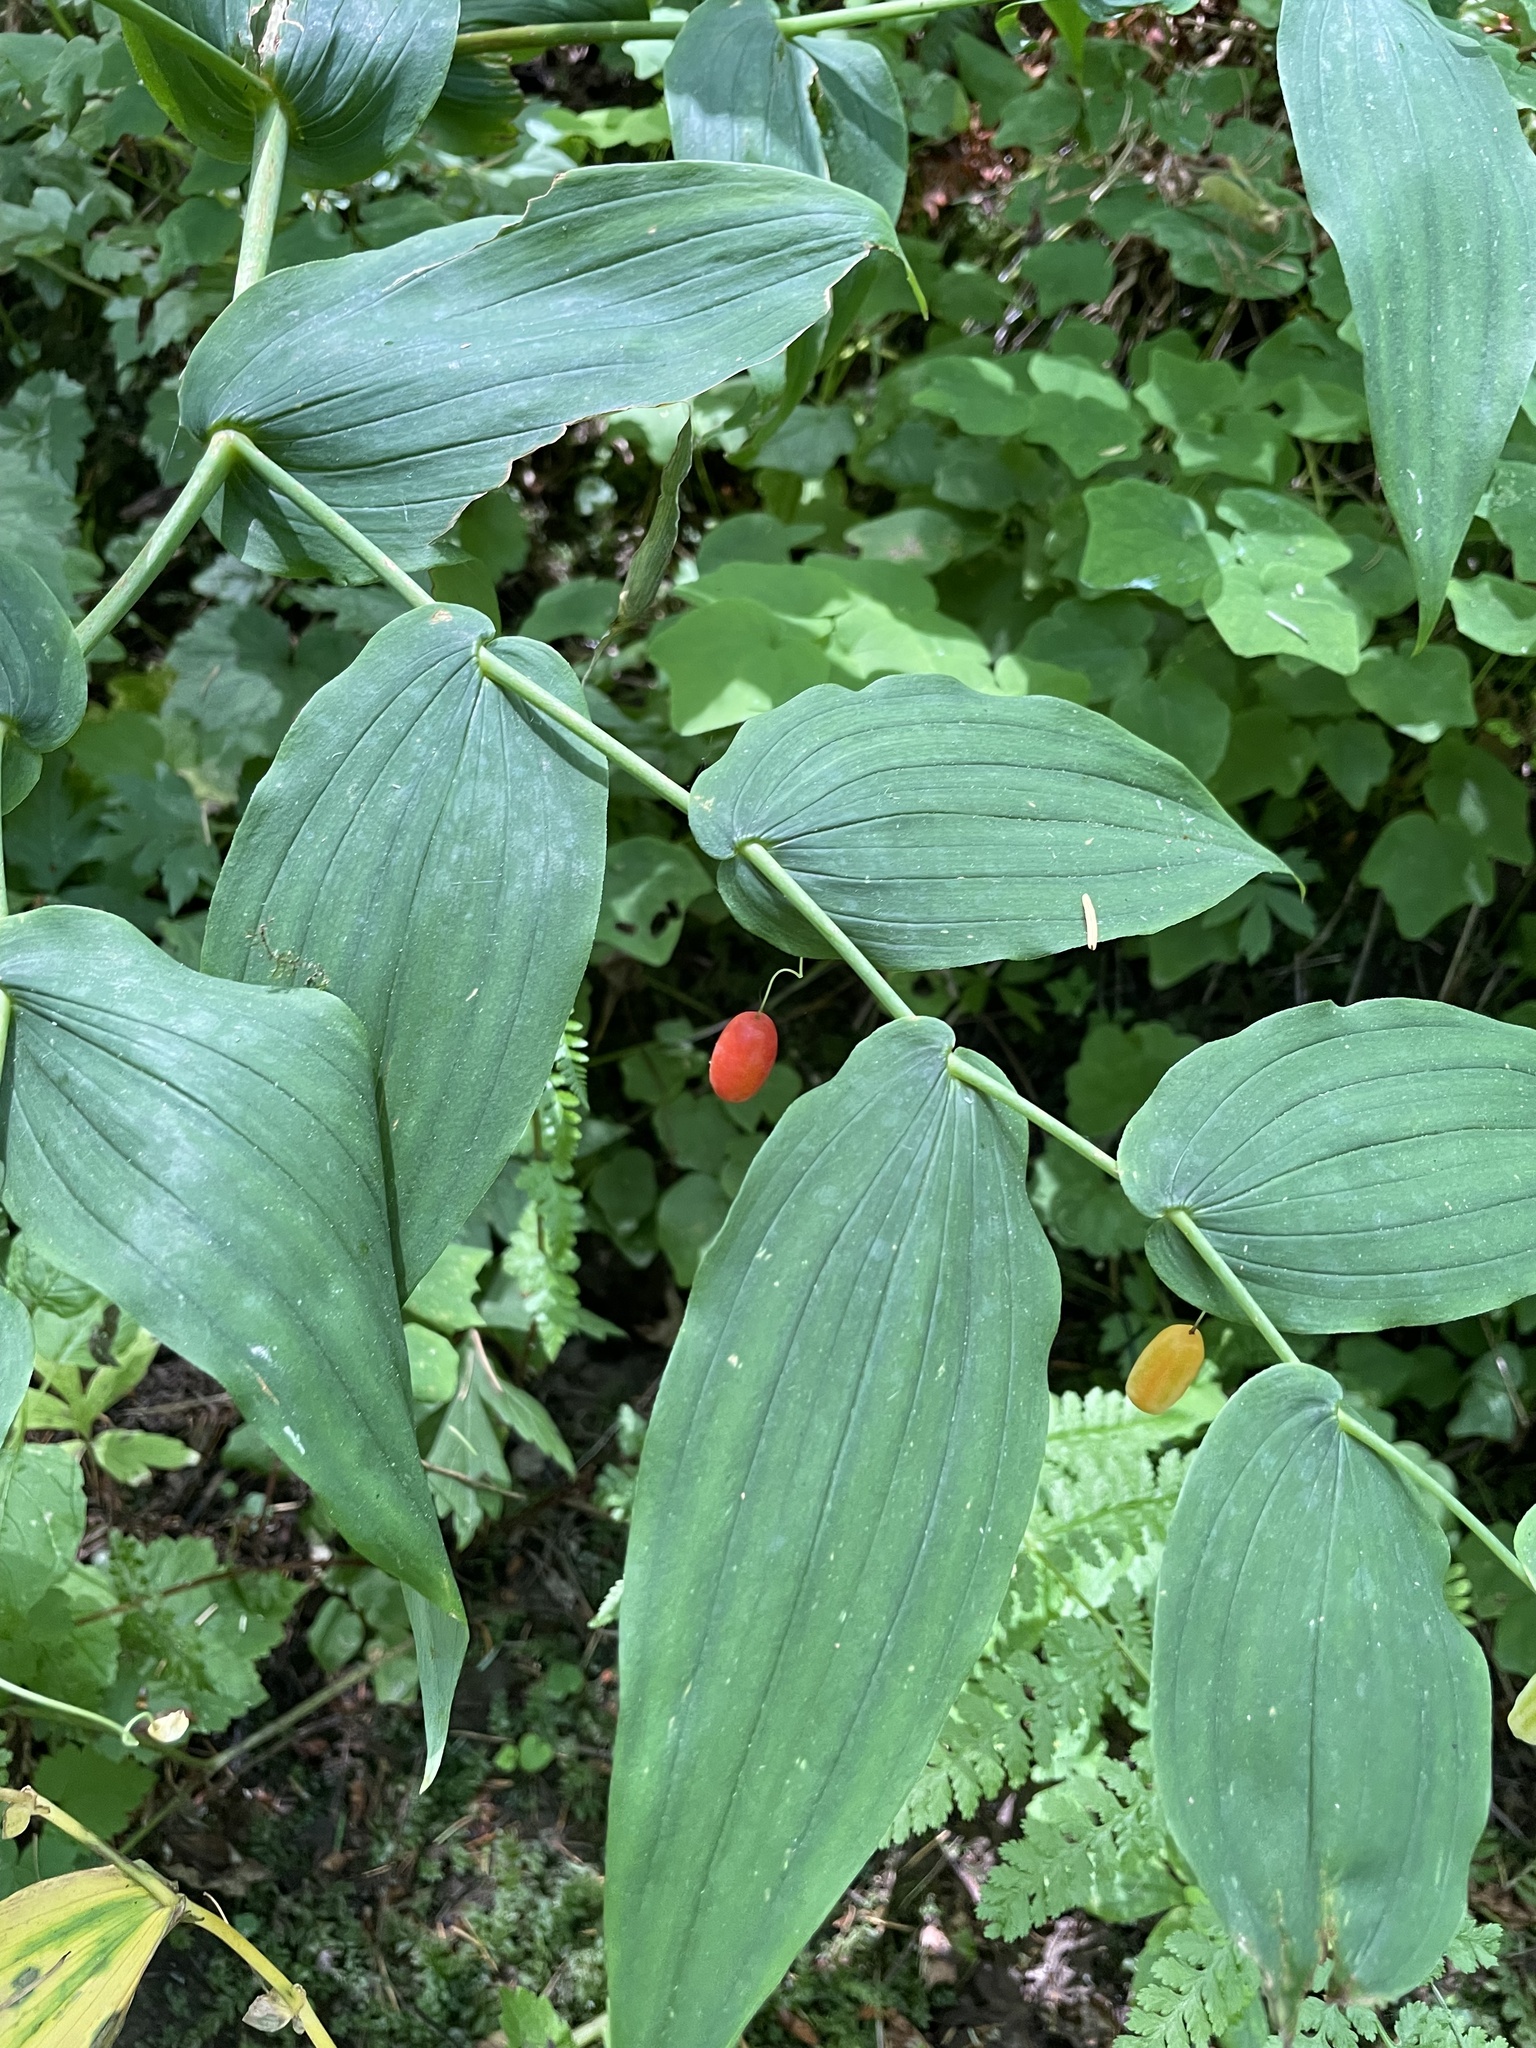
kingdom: Plantae
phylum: Tracheophyta
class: Liliopsida
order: Liliales
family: Liliaceae
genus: Streptopus
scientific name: Streptopus amplexifolius
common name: Clasp twisted stalk
